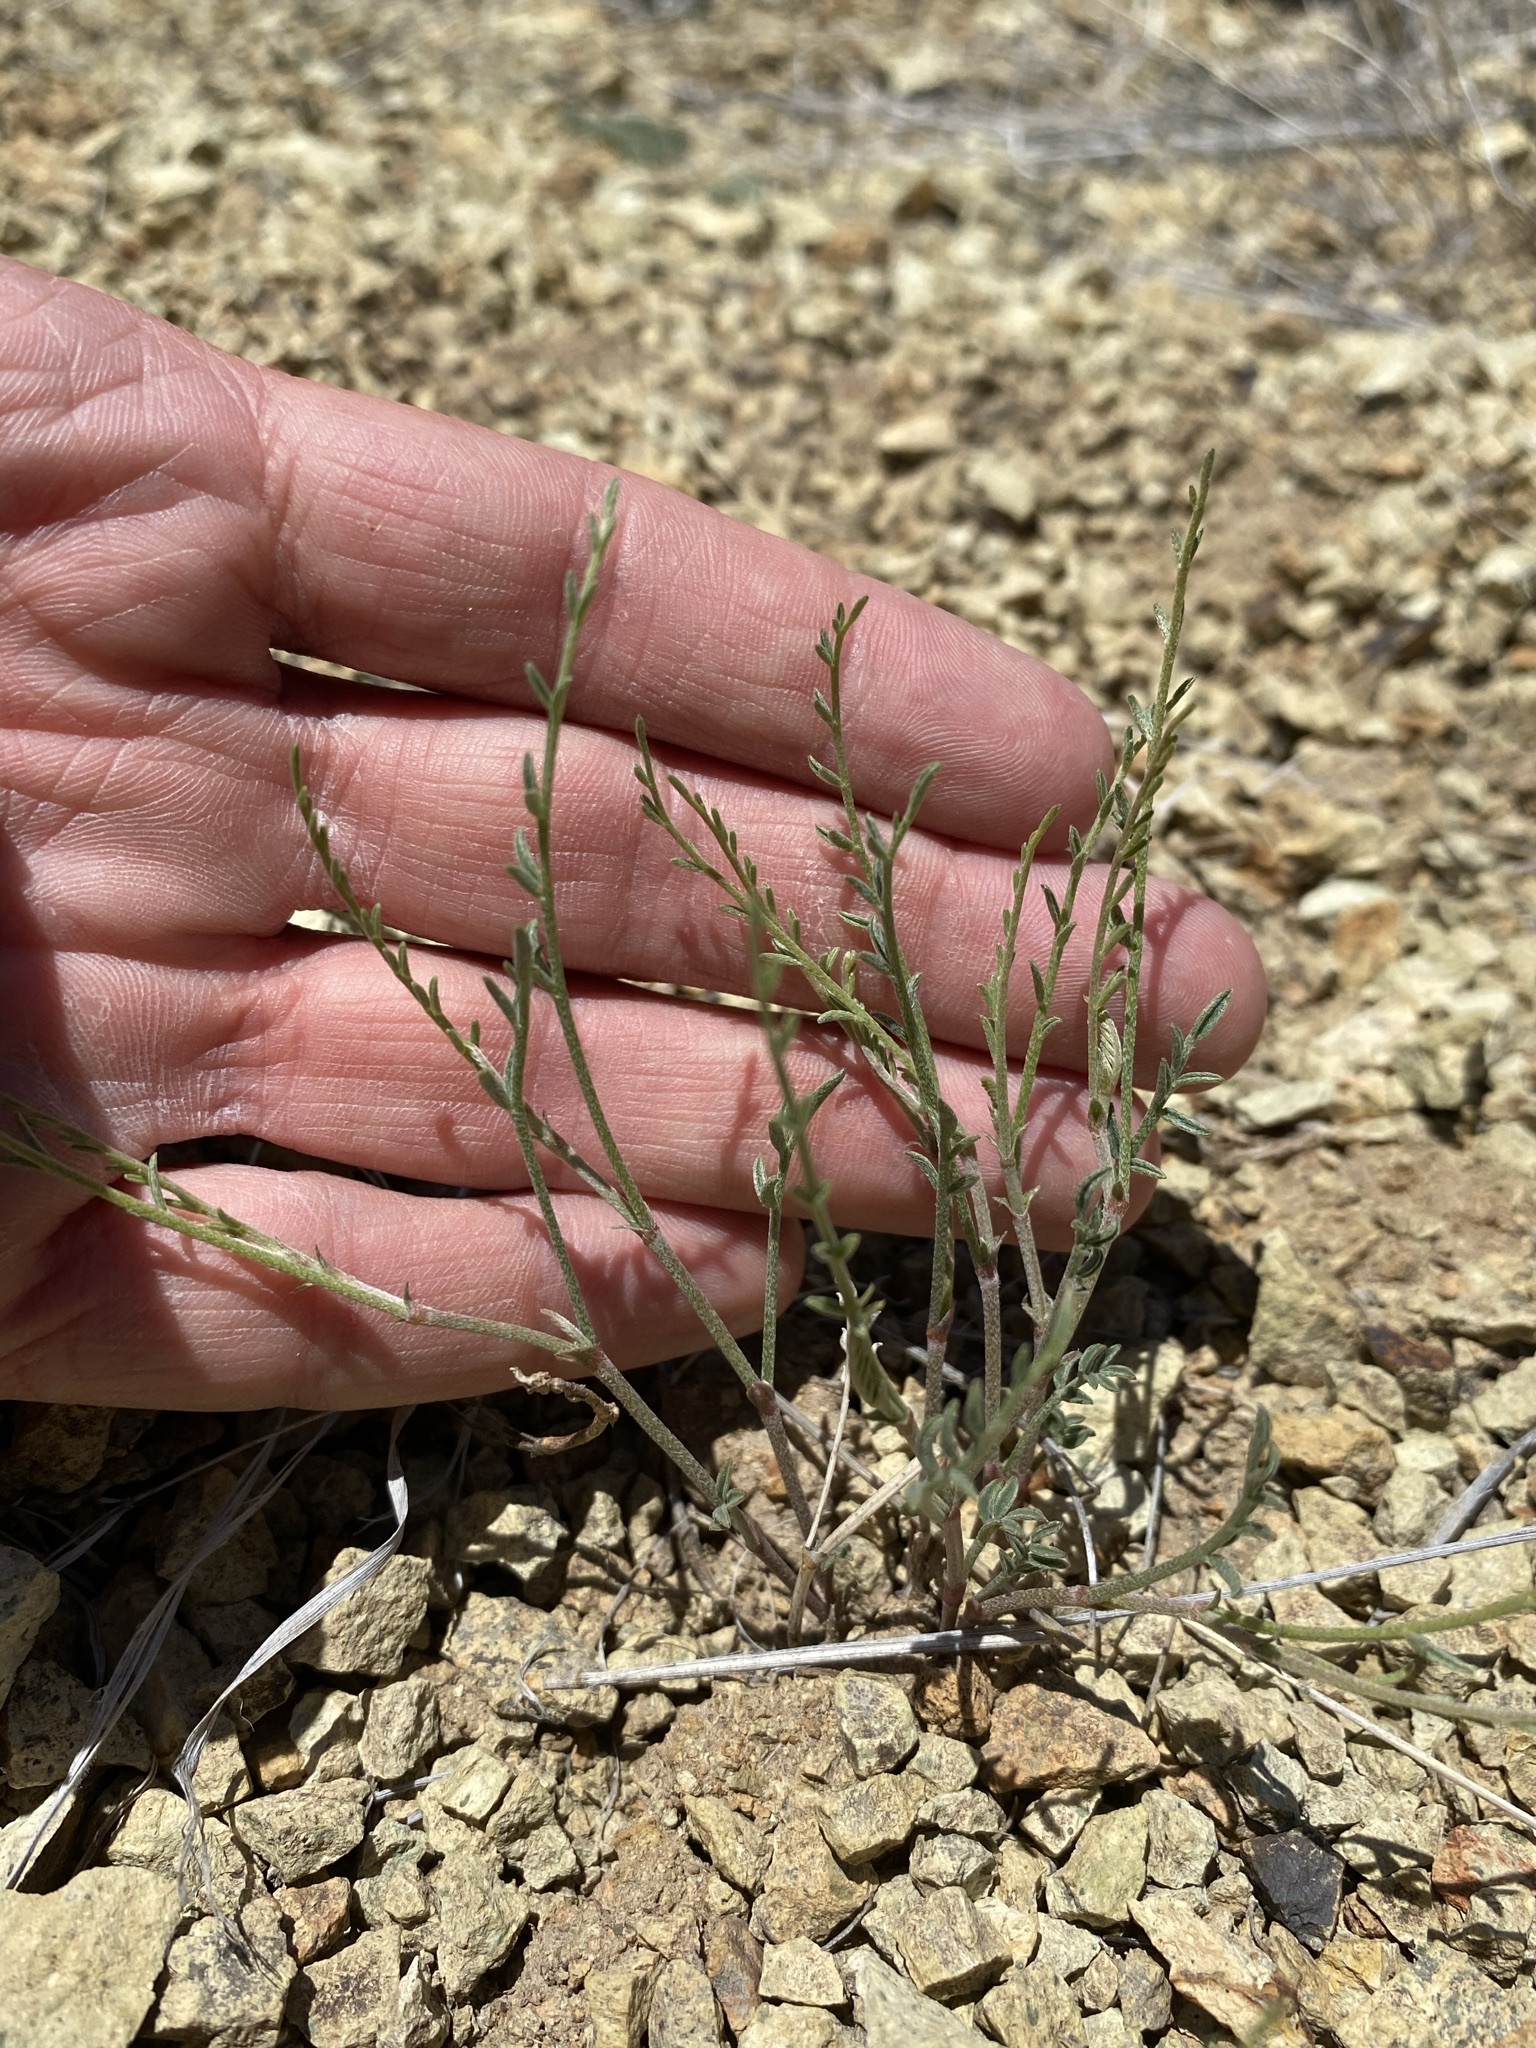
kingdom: Plantae
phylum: Tracheophyta
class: Magnoliopsida
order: Fabales
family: Fabaceae
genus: Astragalus
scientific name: Astragalus sterilis
